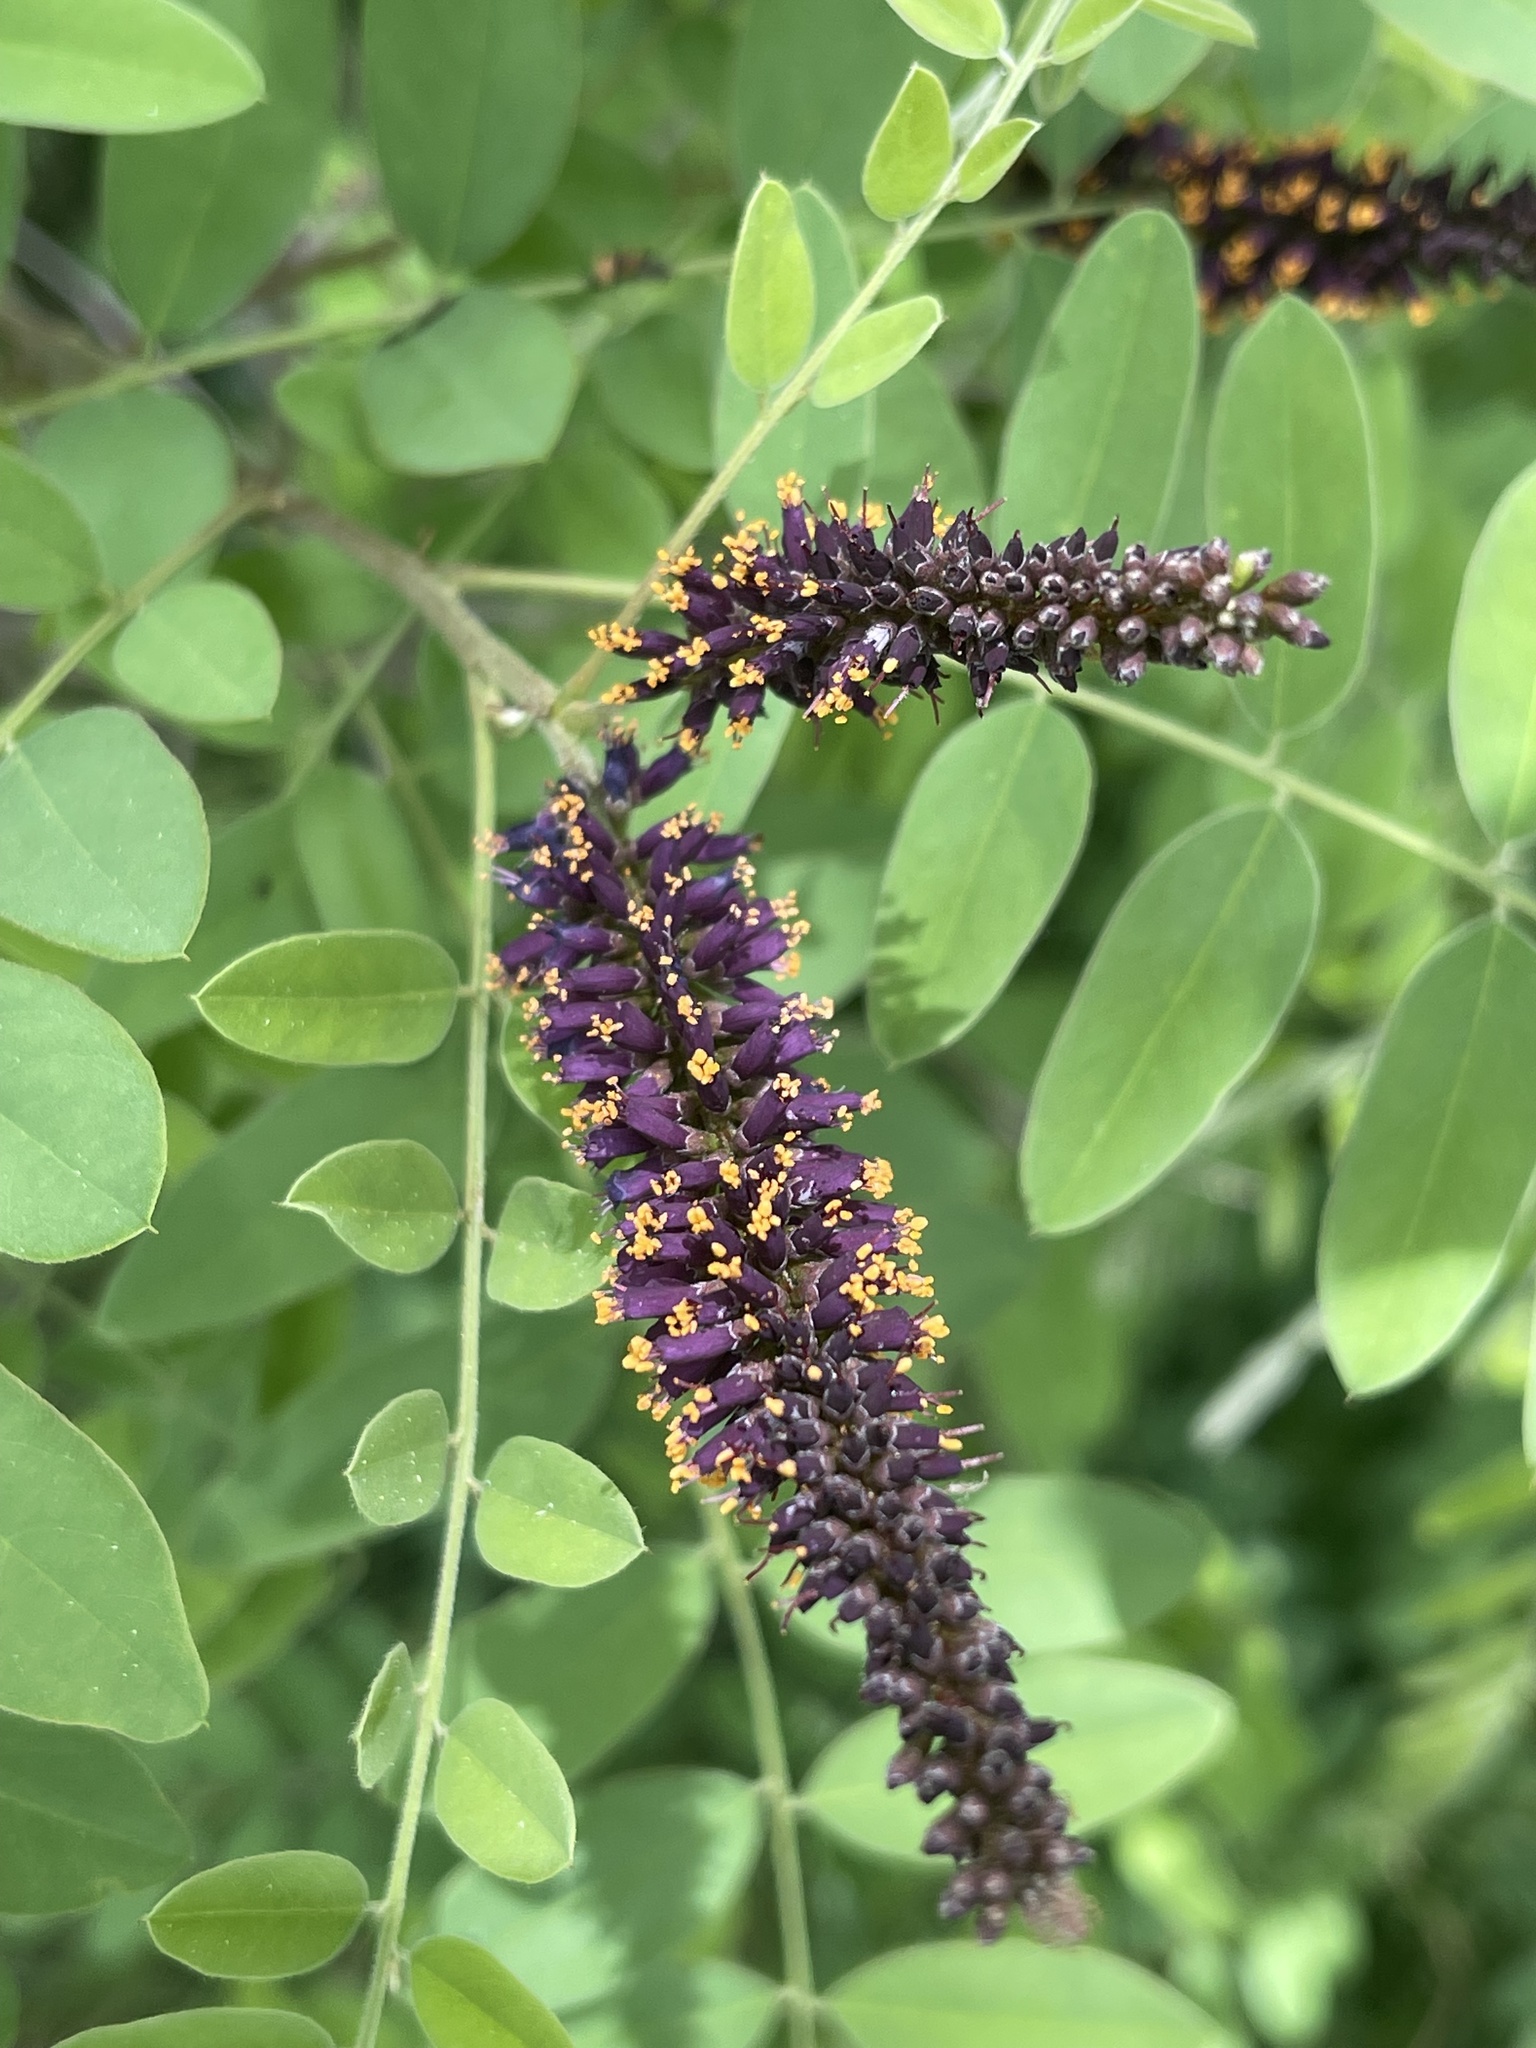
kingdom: Plantae
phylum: Tracheophyta
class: Magnoliopsida
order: Fabales
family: Fabaceae
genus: Amorpha
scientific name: Amorpha fruticosa
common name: False indigo
